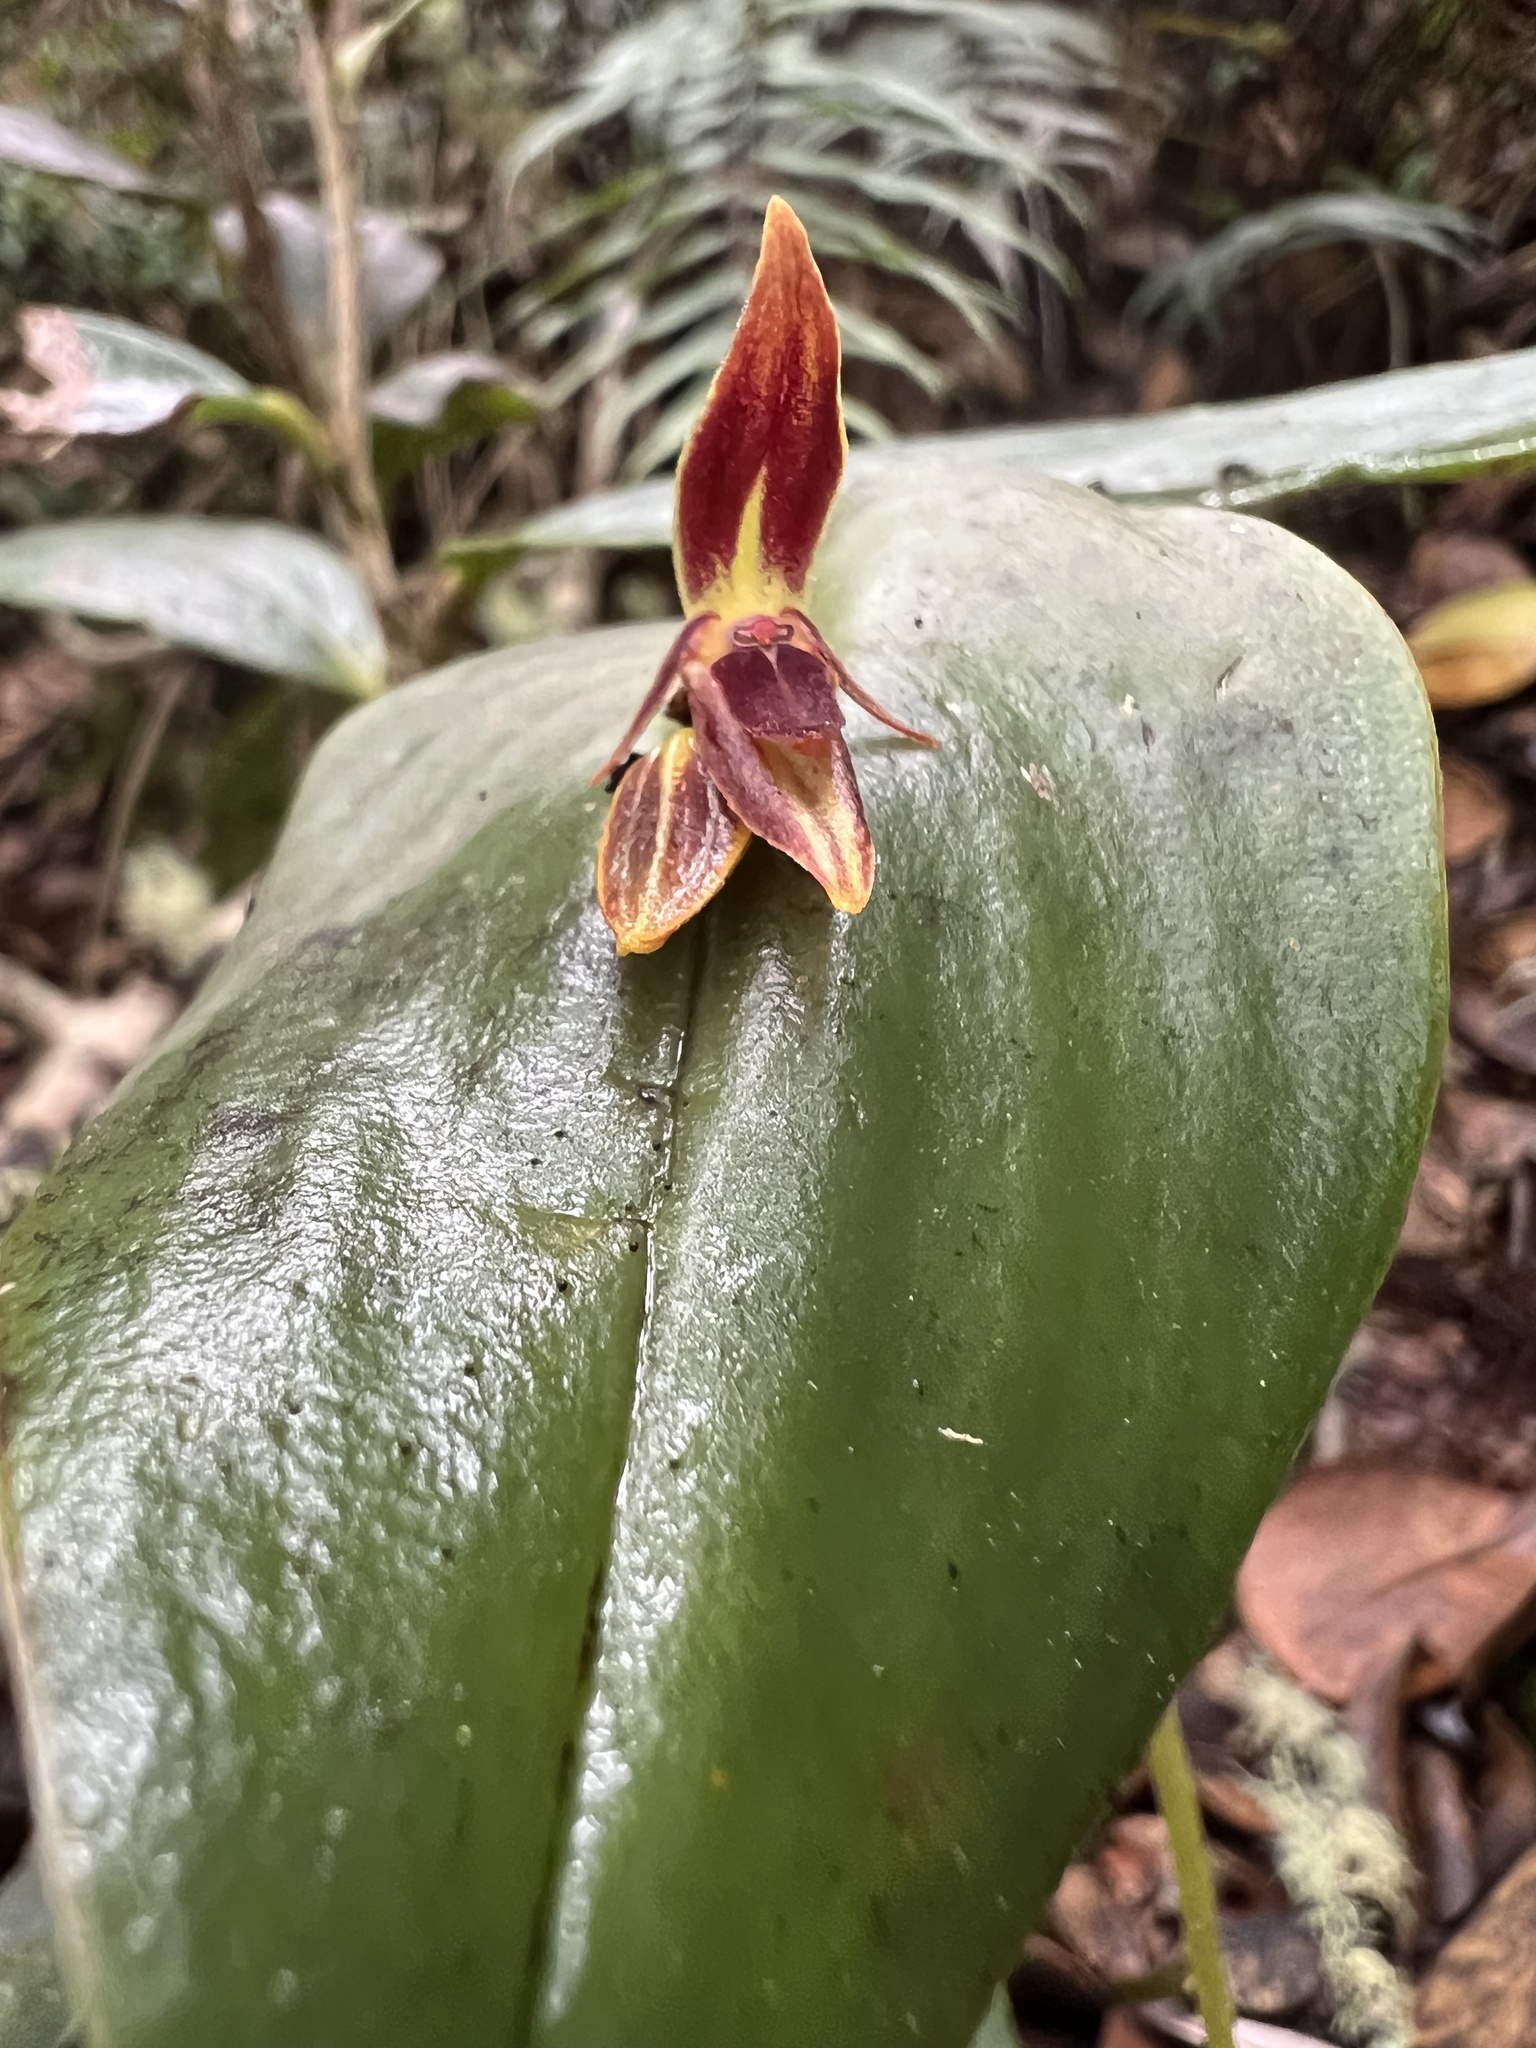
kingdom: Plantae
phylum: Tracheophyta
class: Liliopsida
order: Asparagales
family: Orchidaceae
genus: Pleurothallis
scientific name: Pleurothallis coriacardia
